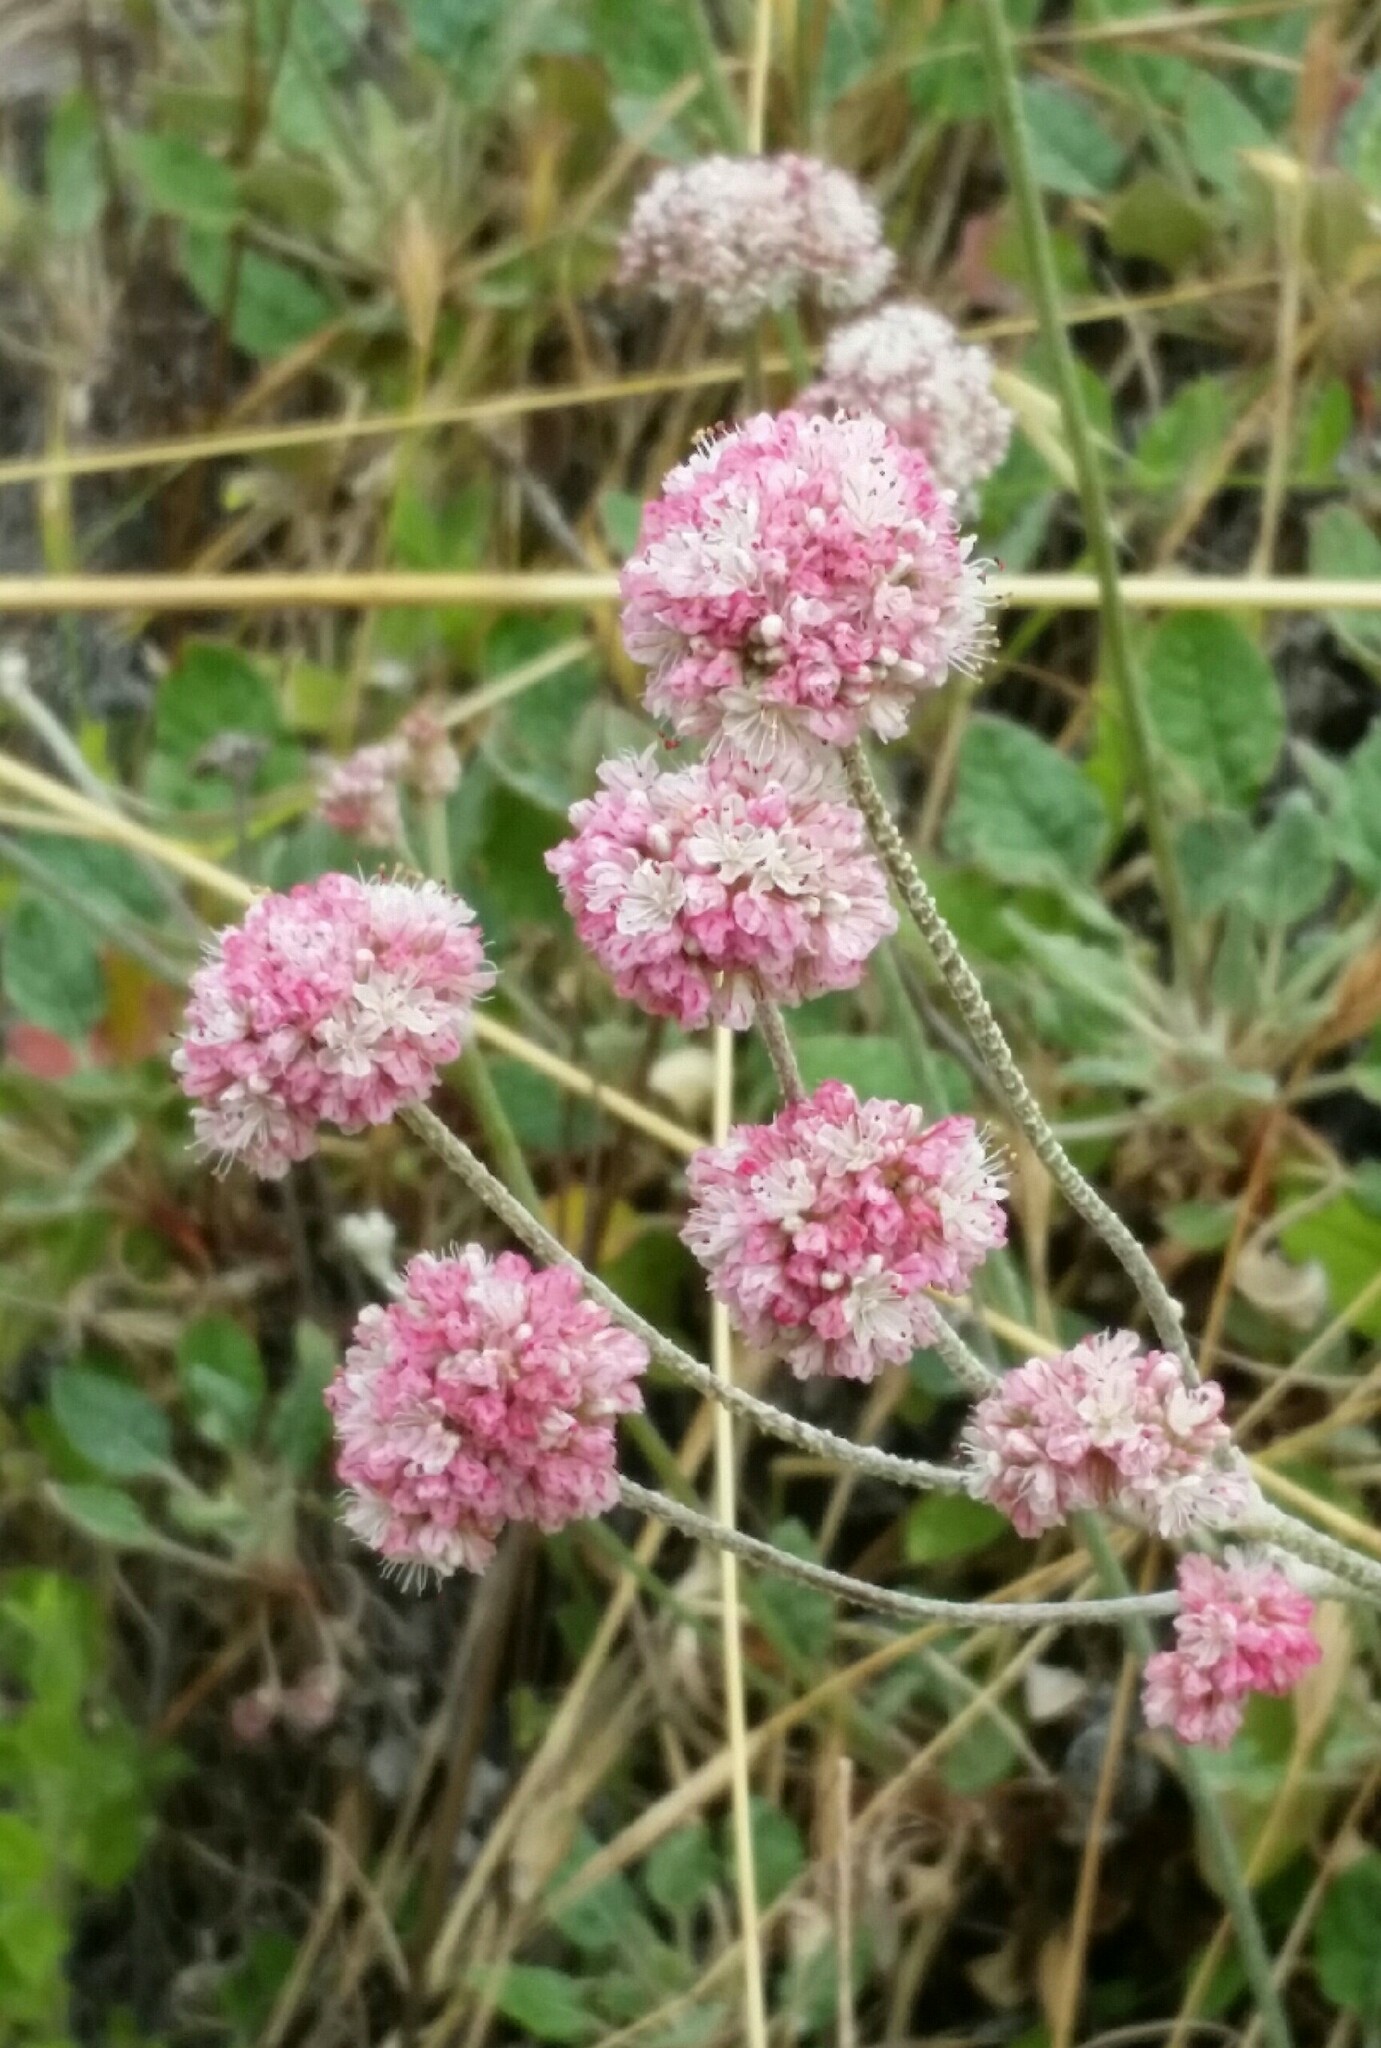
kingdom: Plantae
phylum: Tracheophyta
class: Magnoliopsida
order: Caryophyllales
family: Polygonaceae
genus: Eriogonum
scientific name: Eriogonum nudum
